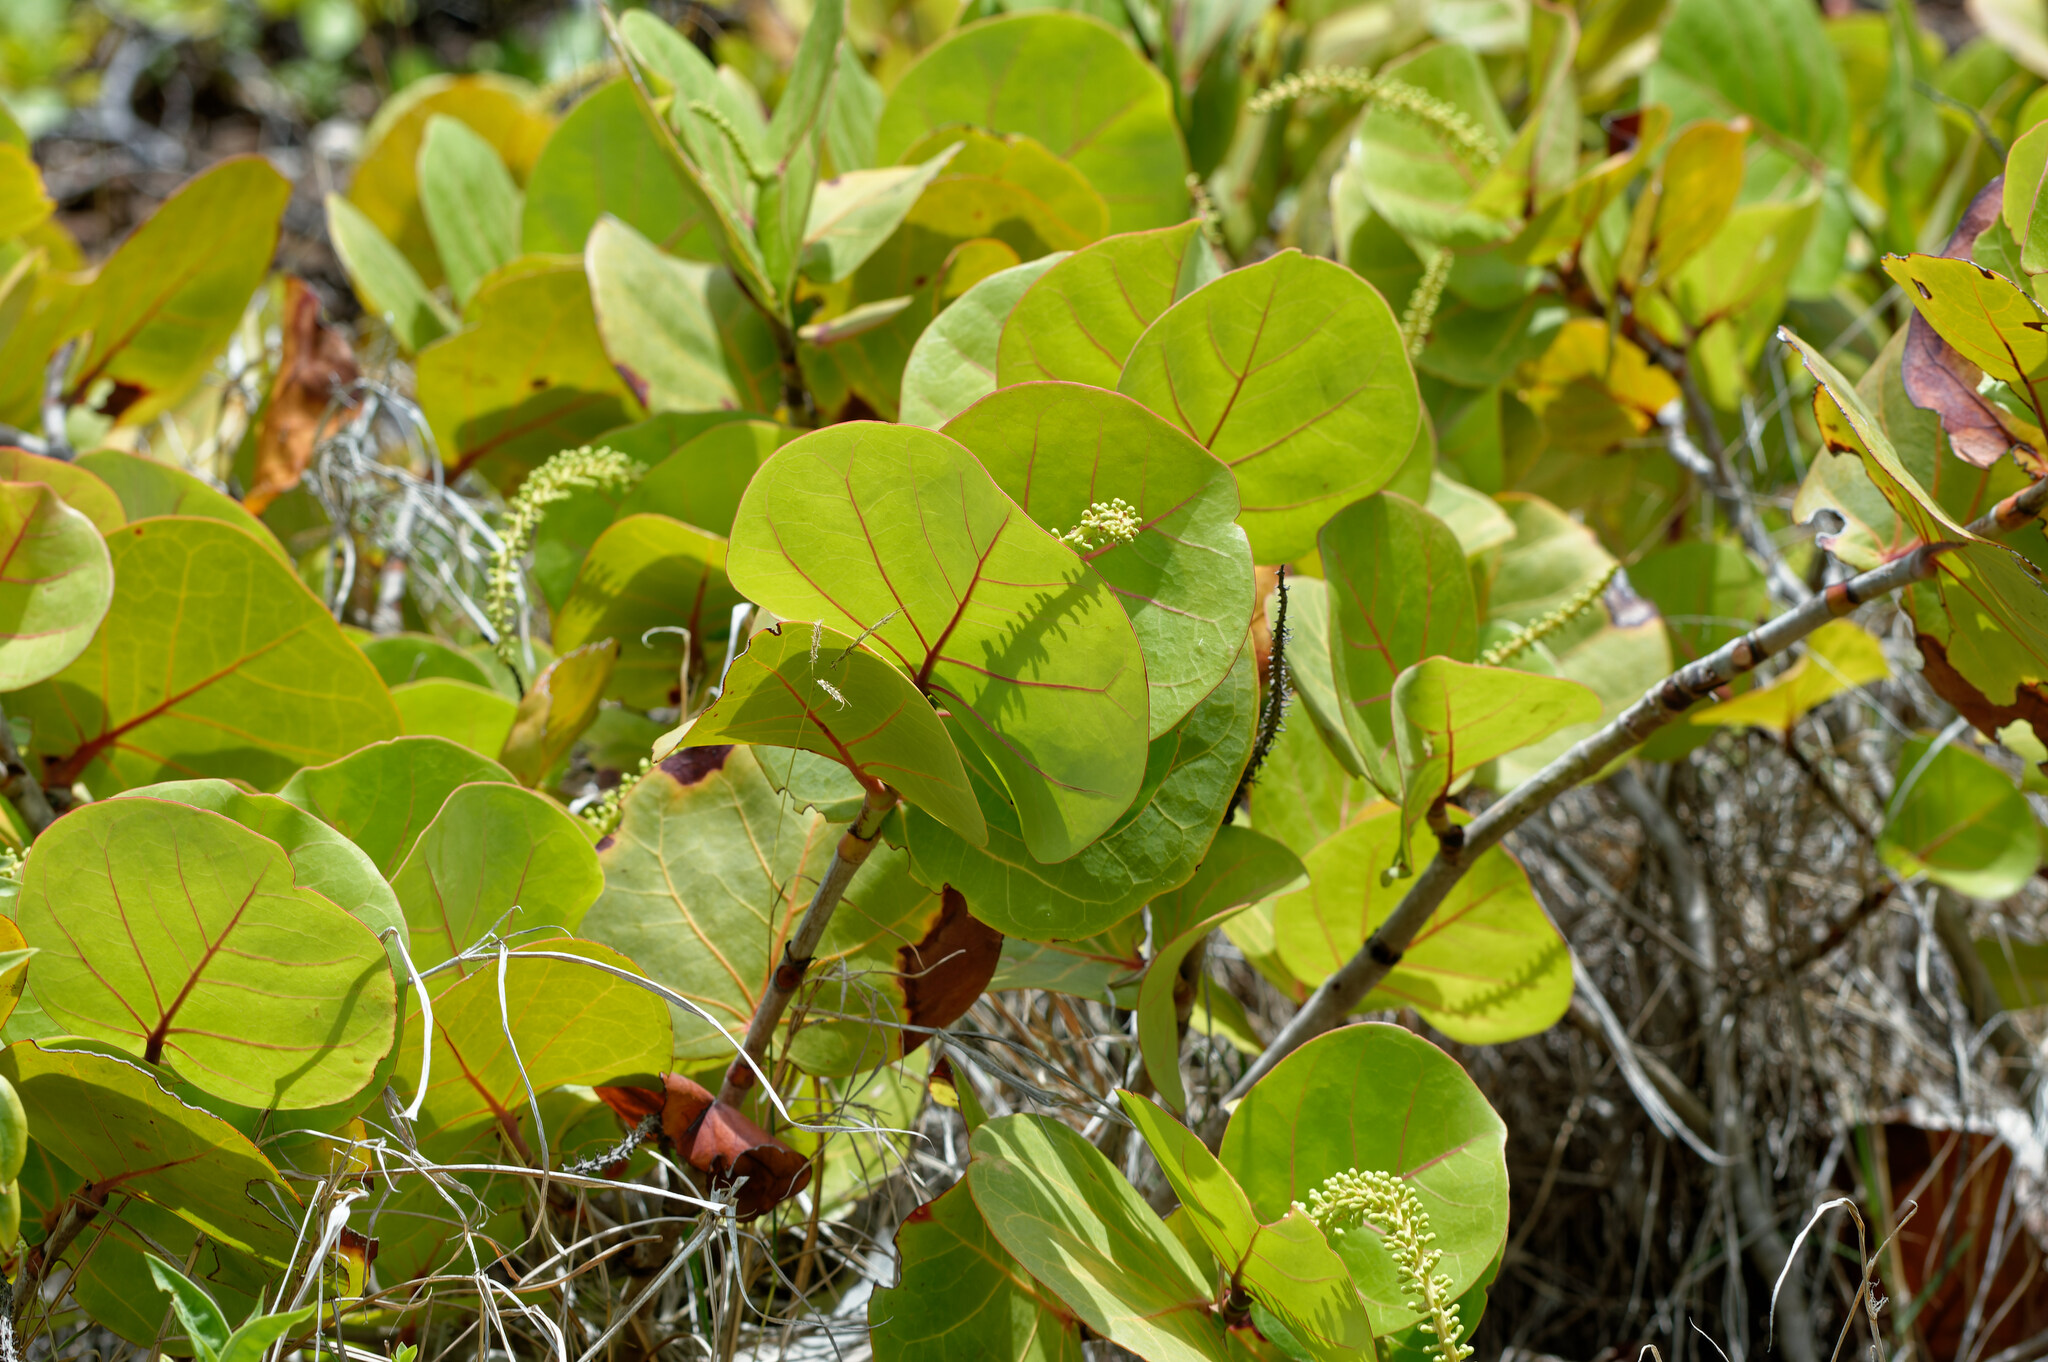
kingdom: Plantae
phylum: Tracheophyta
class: Magnoliopsida
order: Caryophyllales
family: Polygonaceae
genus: Coccoloba
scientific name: Coccoloba uvifera
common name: Seagrape
